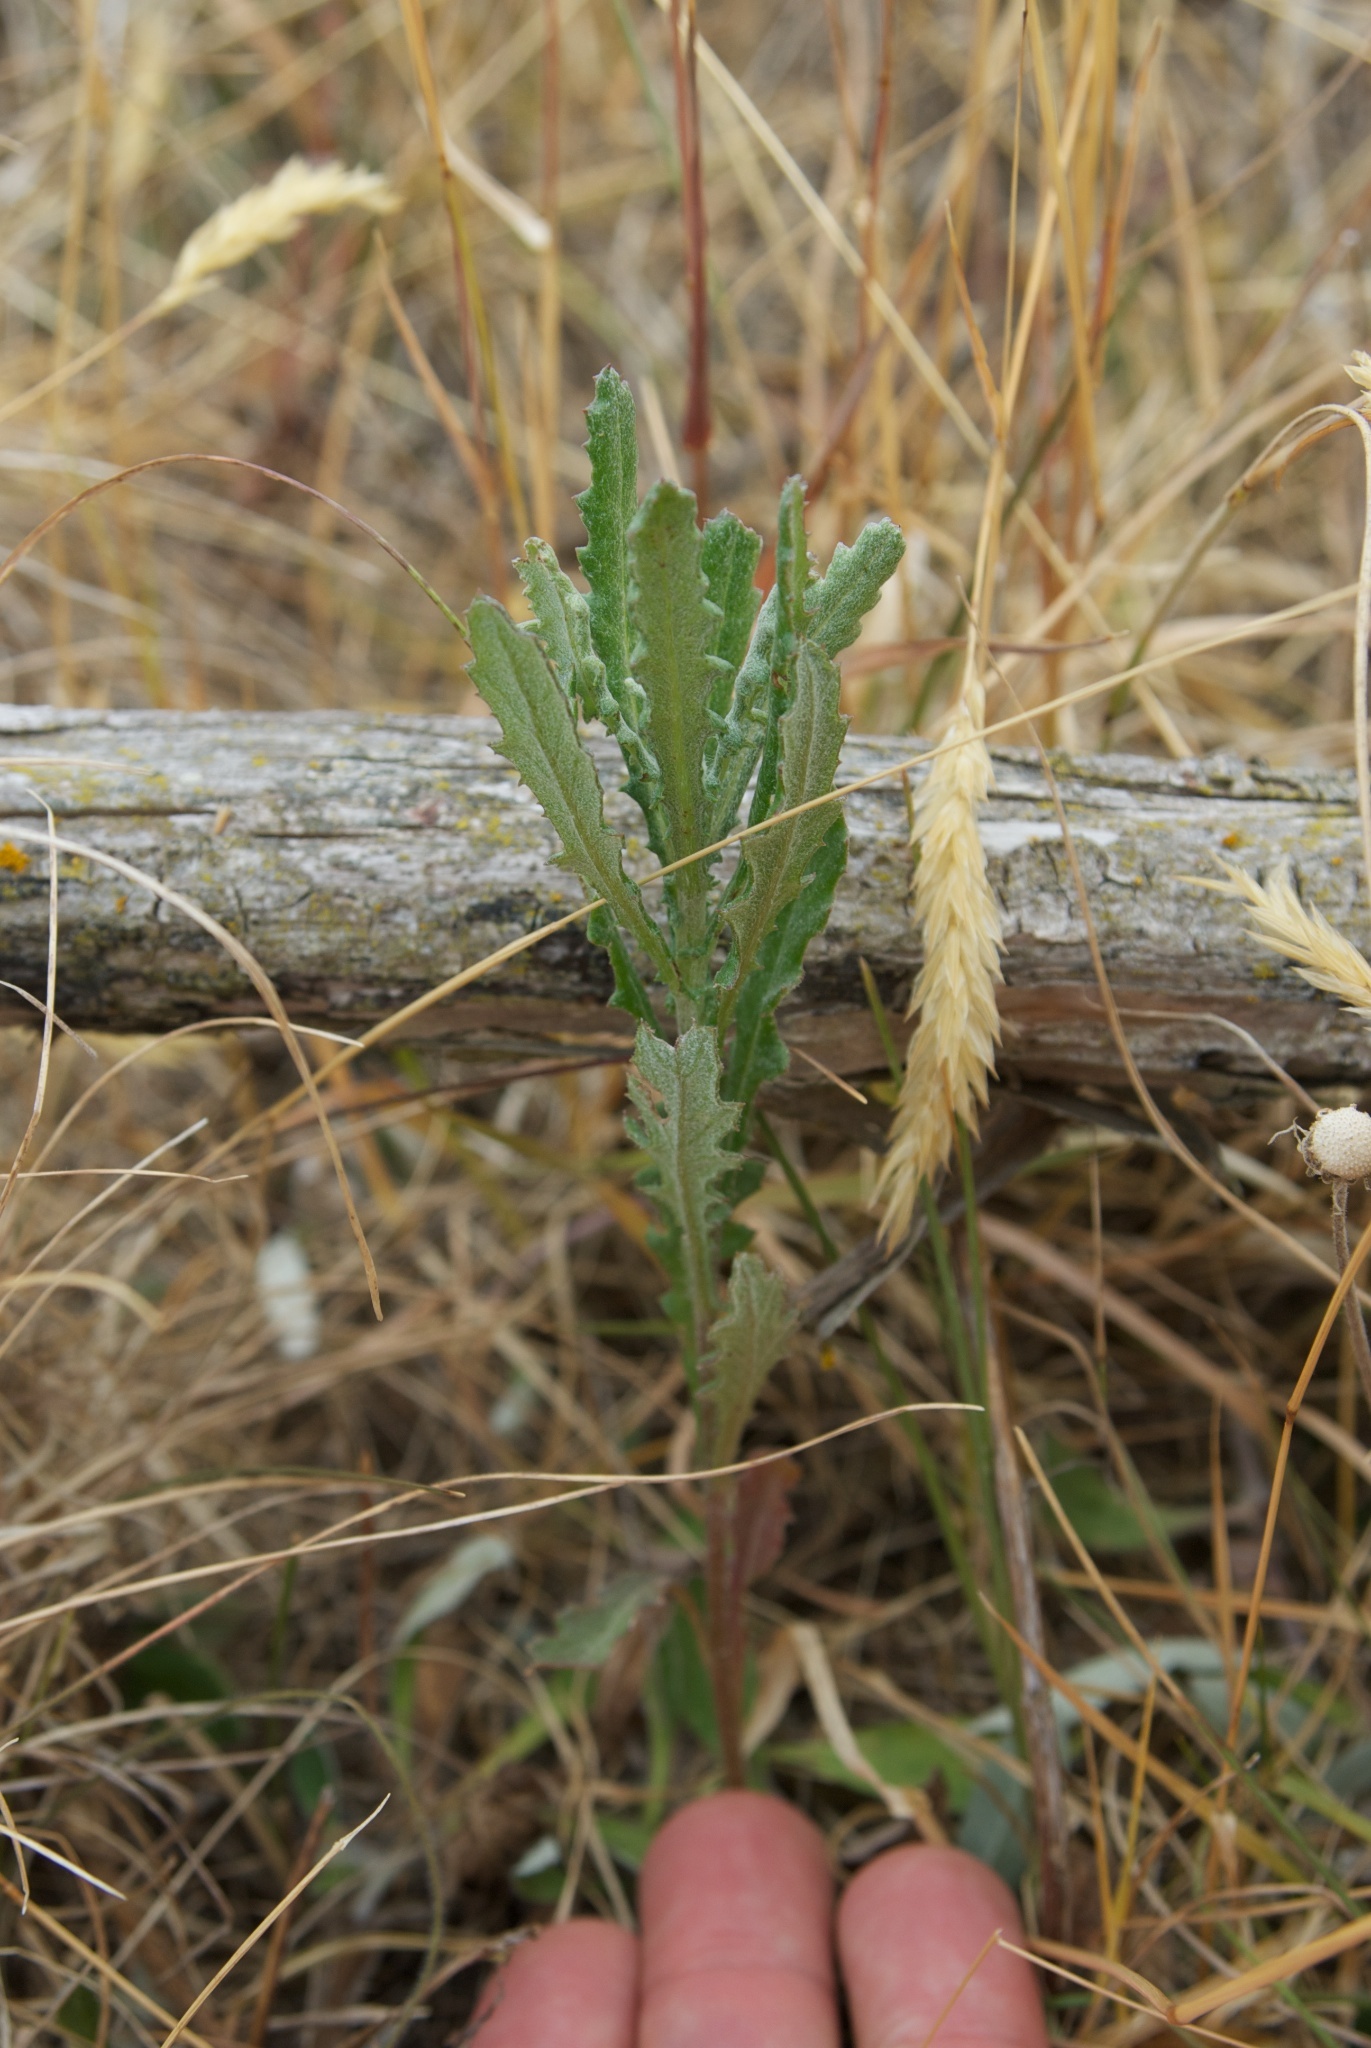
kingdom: Plantae
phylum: Tracheophyta
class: Magnoliopsida
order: Asterales
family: Asteraceae
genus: Senecio
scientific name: Senecio glomeratus
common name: Cutleaf burnweed
